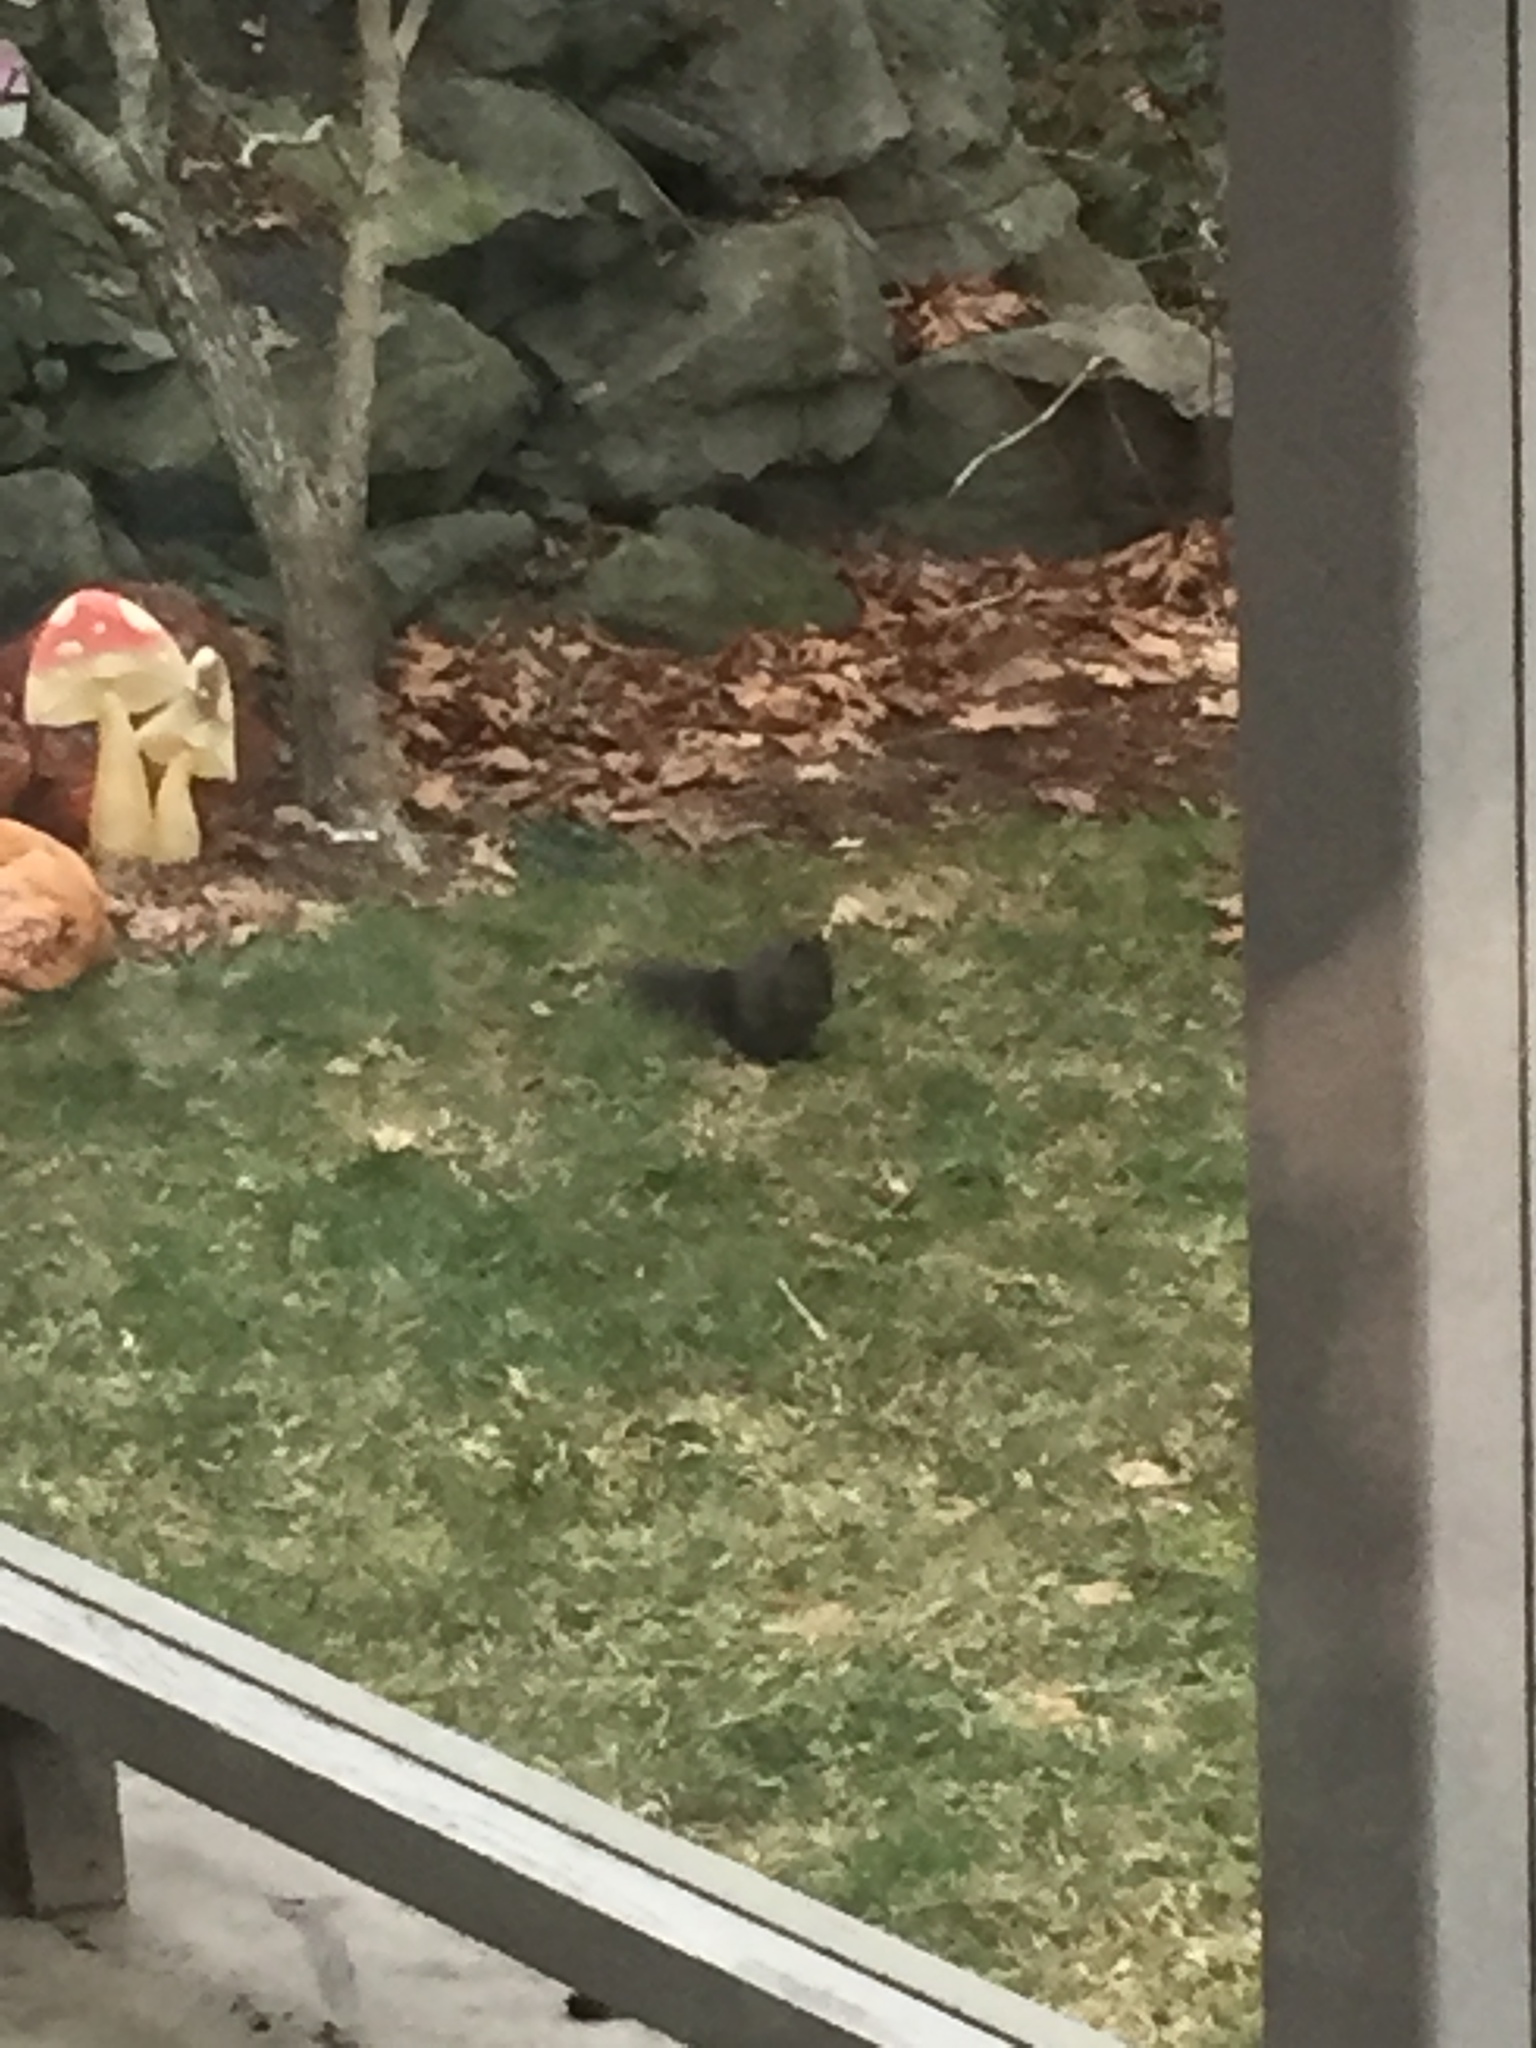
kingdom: Animalia
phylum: Chordata
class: Mammalia
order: Rodentia
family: Sciuridae
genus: Sciurus
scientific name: Sciurus carolinensis
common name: Eastern gray squirrel
